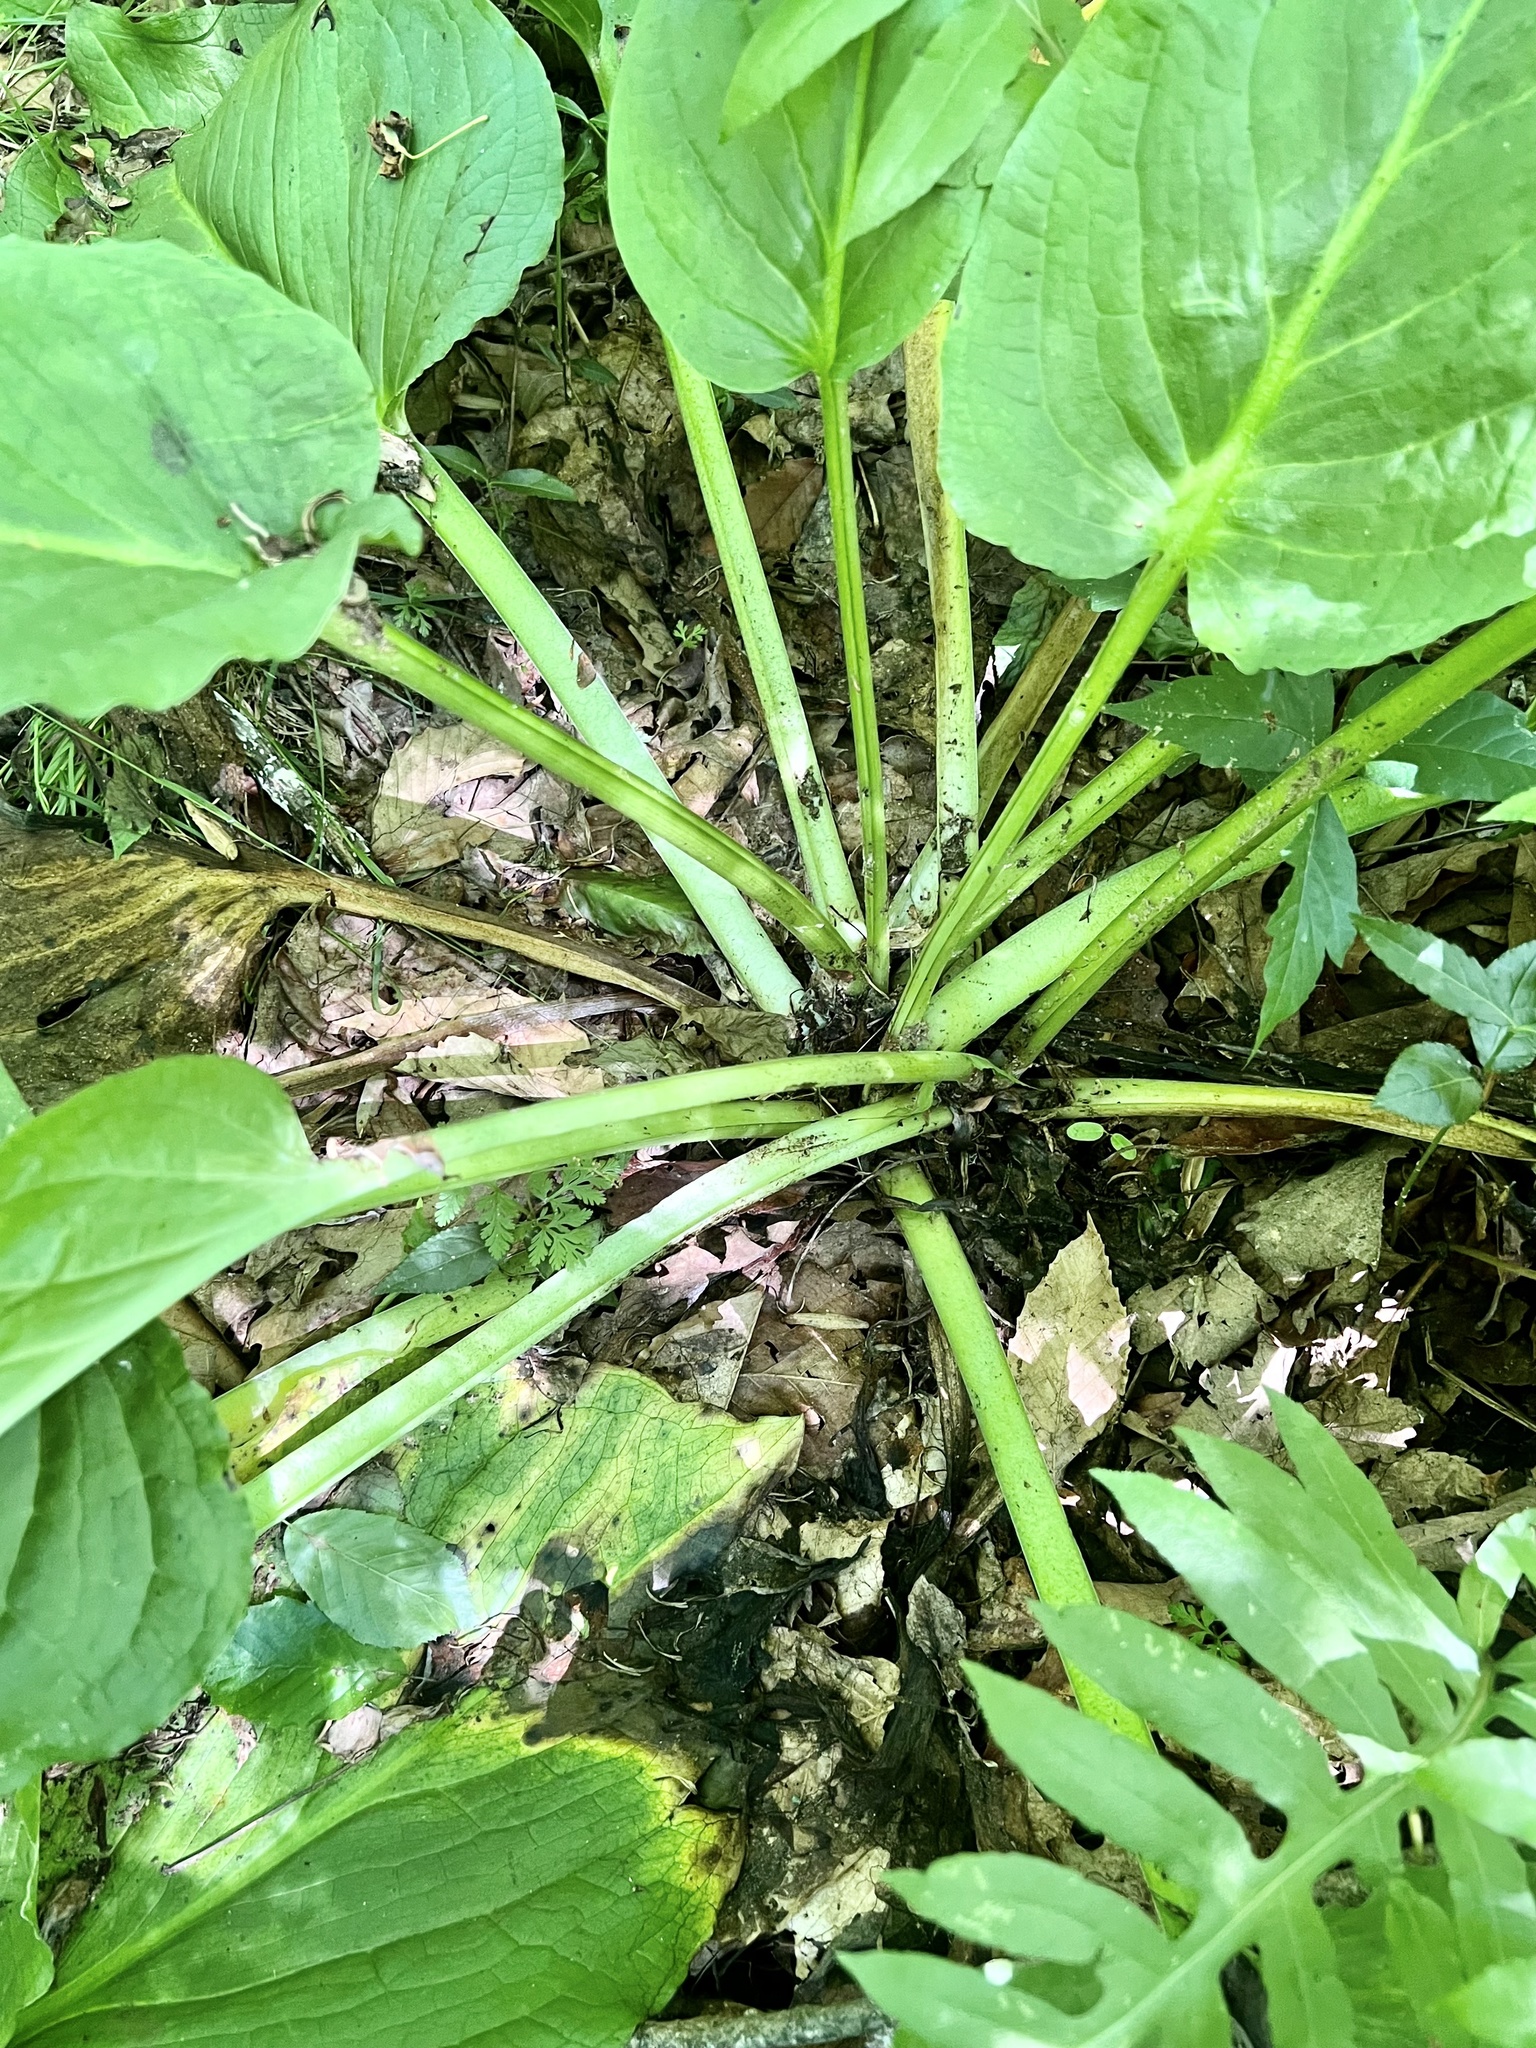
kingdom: Plantae
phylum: Tracheophyta
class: Liliopsida
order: Alismatales
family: Araceae
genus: Symplocarpus
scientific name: Symplocarpus foetidus
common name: Eastern skunk cabbage
